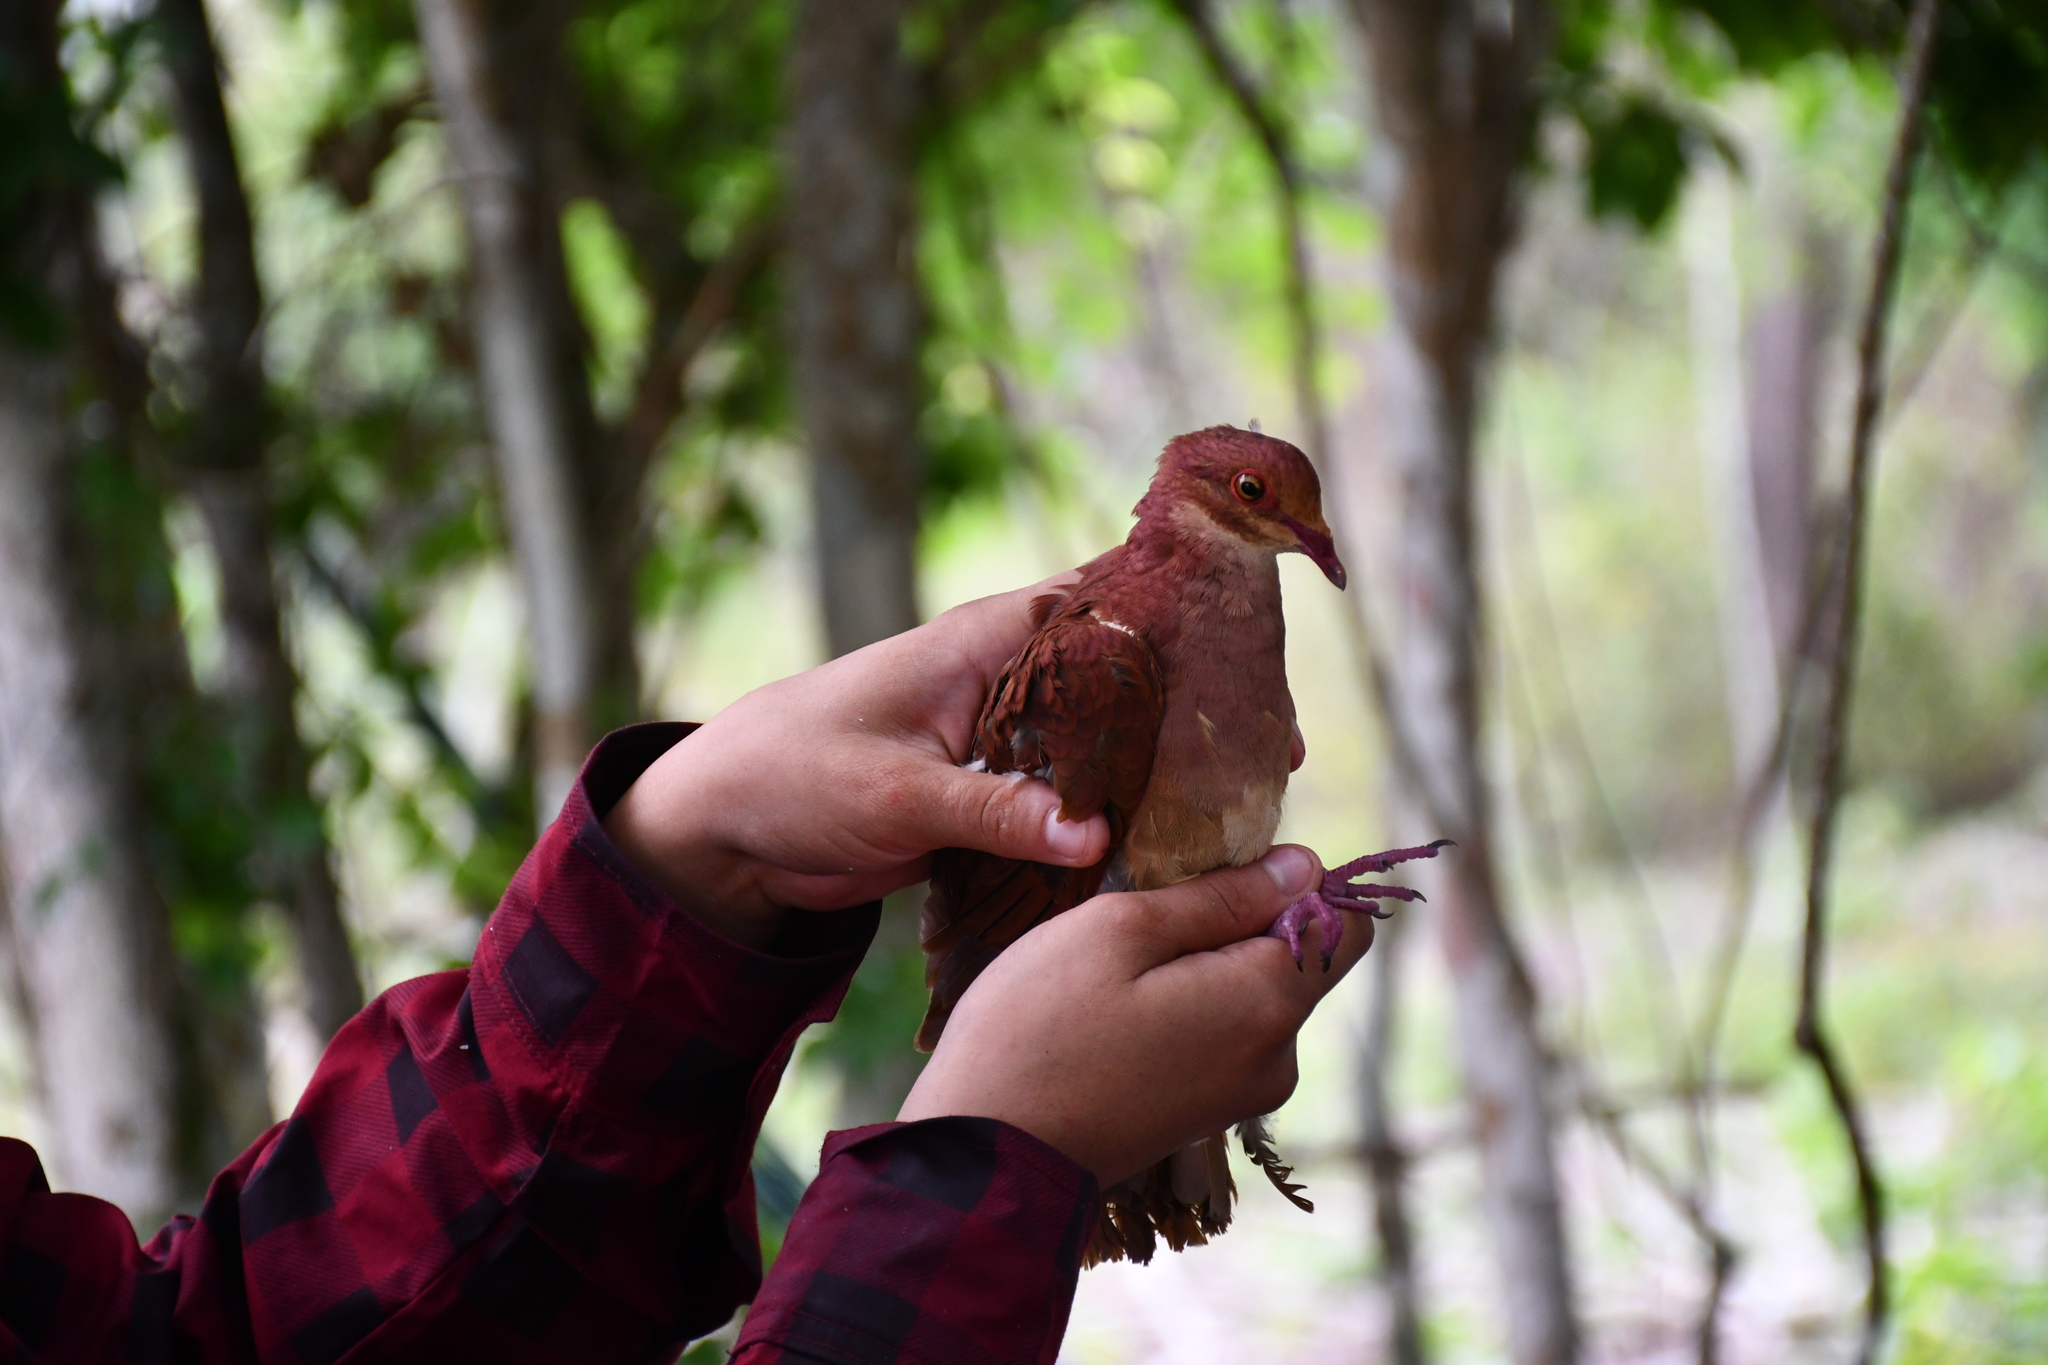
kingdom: Animalia
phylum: Chordata
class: Aves
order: Columbiformes
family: Columbidae
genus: Geotrygon
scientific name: Geotrygon montana
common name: Ruddy quail-dove
